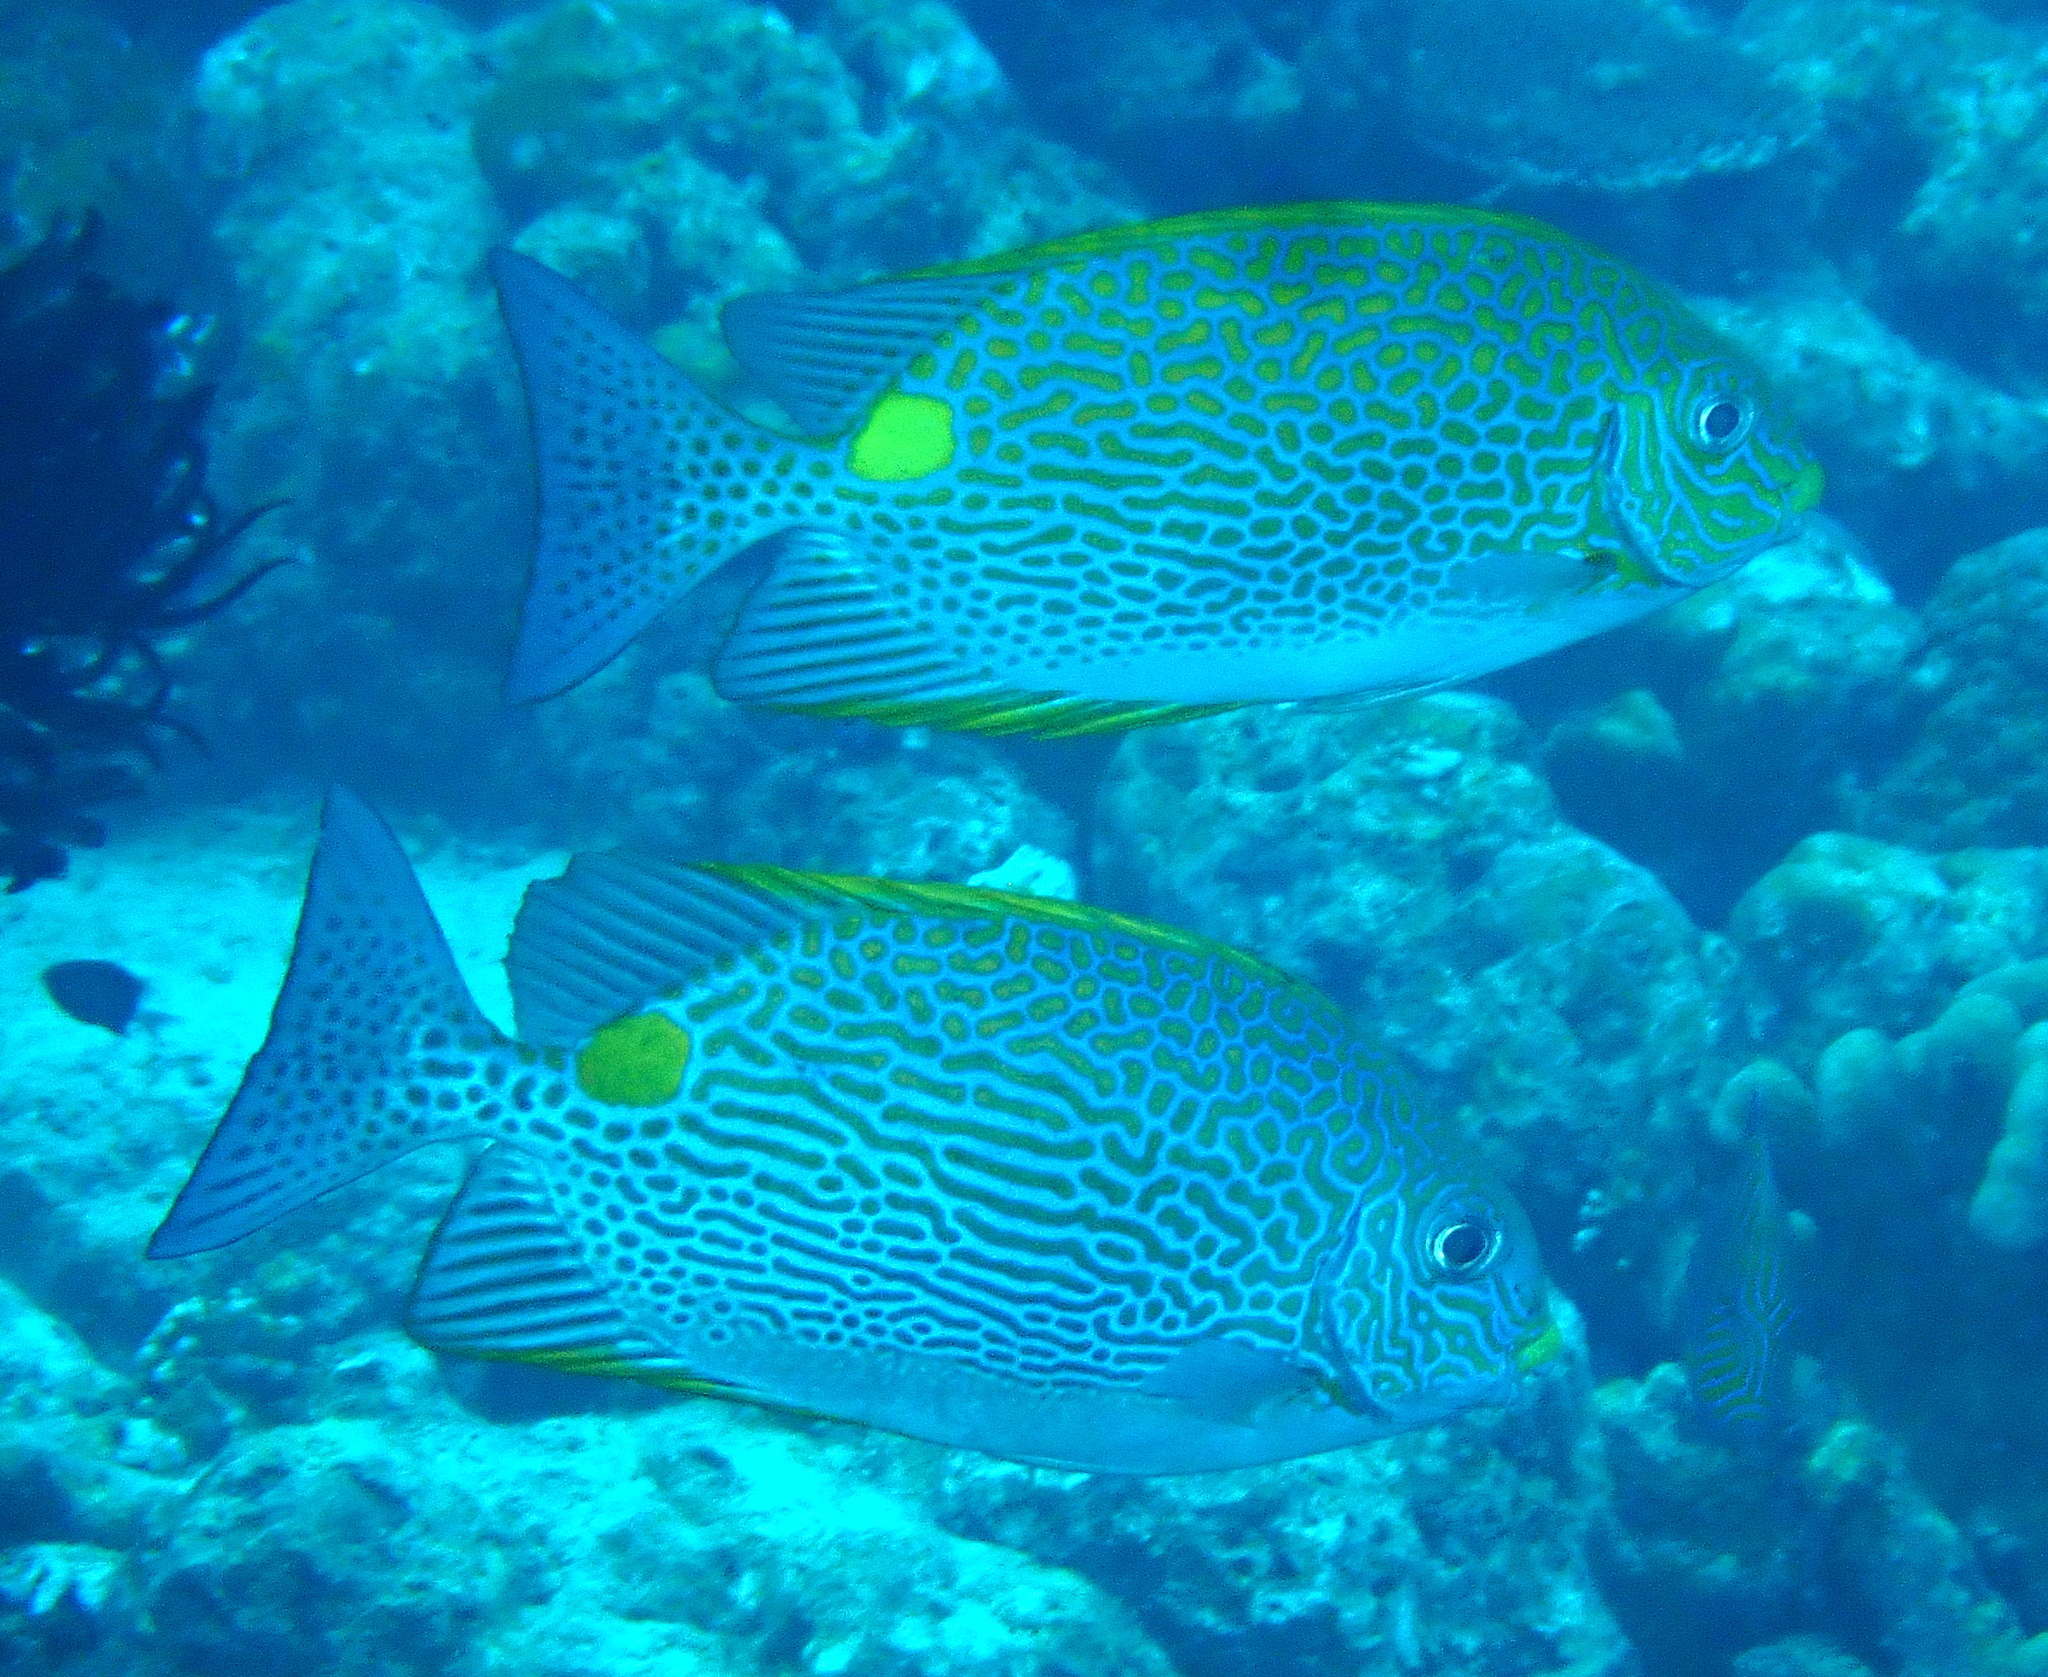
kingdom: Animalia
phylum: Chordata
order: Perciformes
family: Siganidae
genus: Siganus
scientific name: Siganus lineatus
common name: Lined rabbitfish
